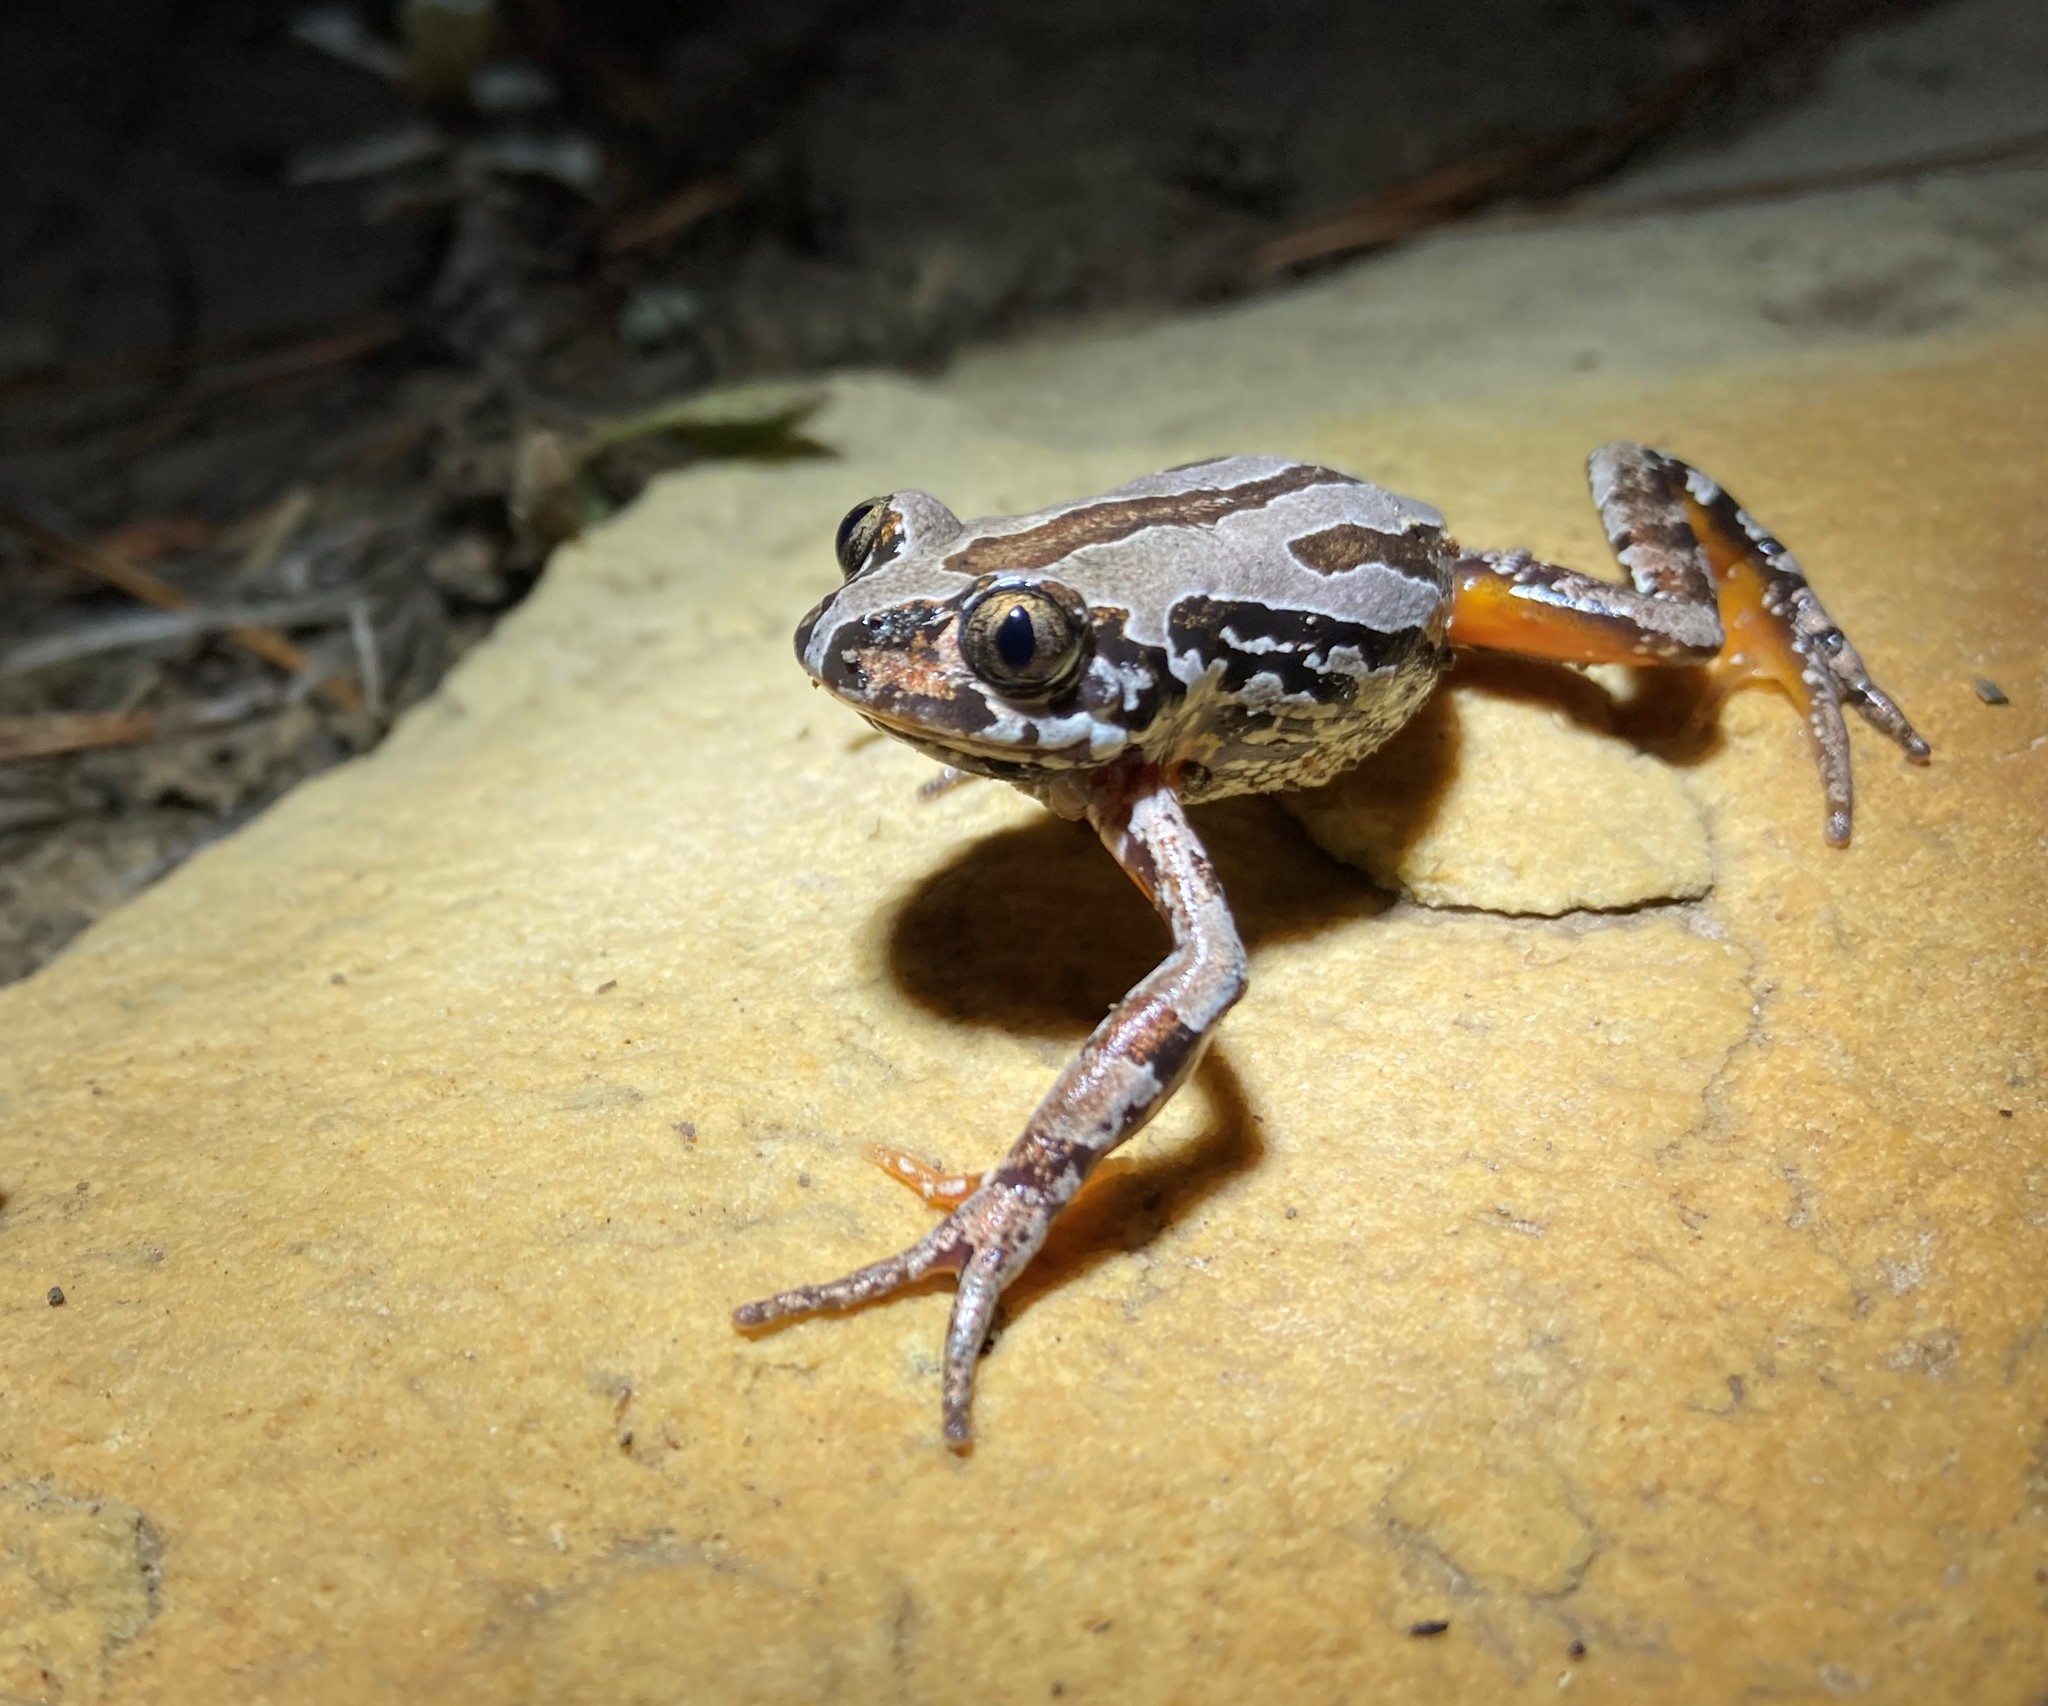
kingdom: Animalia
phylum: Chordata
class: Amphibia
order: Anura
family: Hyperoliidae
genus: Semnodactylus
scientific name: Semnodactylus wealii
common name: Weal's frog
